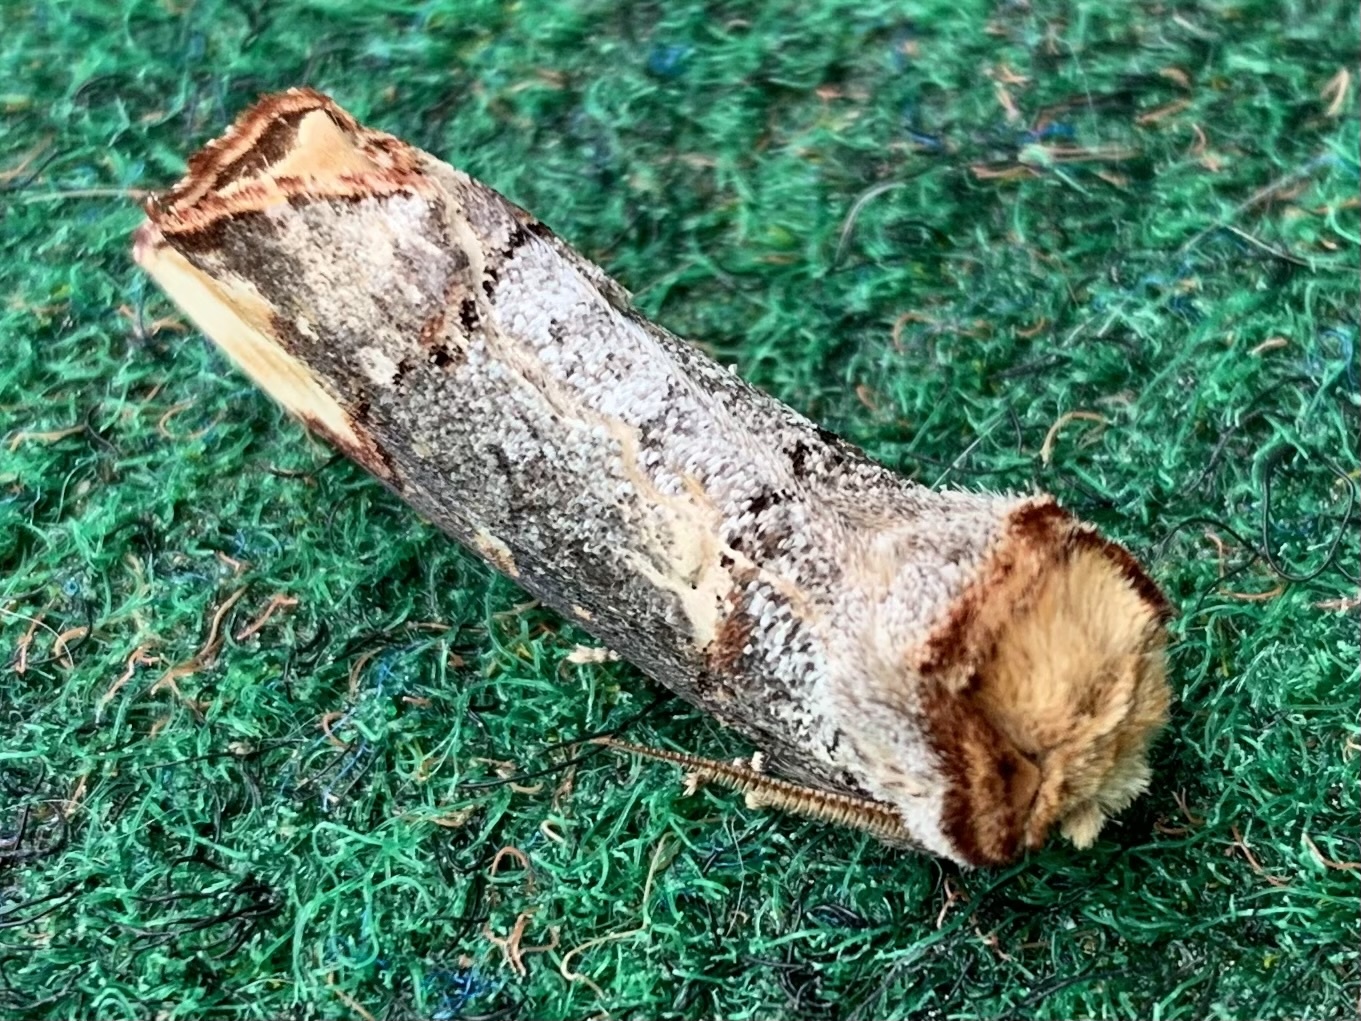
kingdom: Animalia
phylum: Arthropoda
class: Insecta
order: Lepidoptera
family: Notodontidae
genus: Phalera
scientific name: Phalera bucephala
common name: Buff-tip
